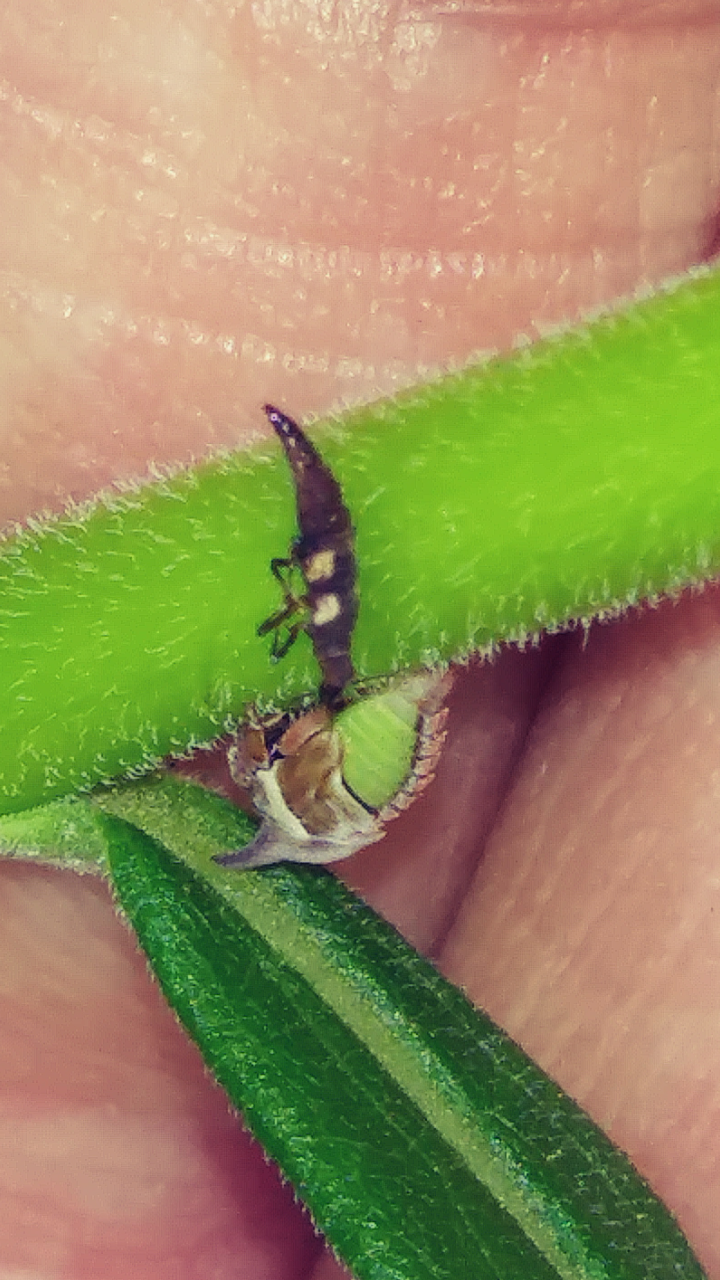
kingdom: Animalia
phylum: Arthropoda
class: Insecta
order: Hemiptera
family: Membracidae
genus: Enchenopa
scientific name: Enchenopa latipes
